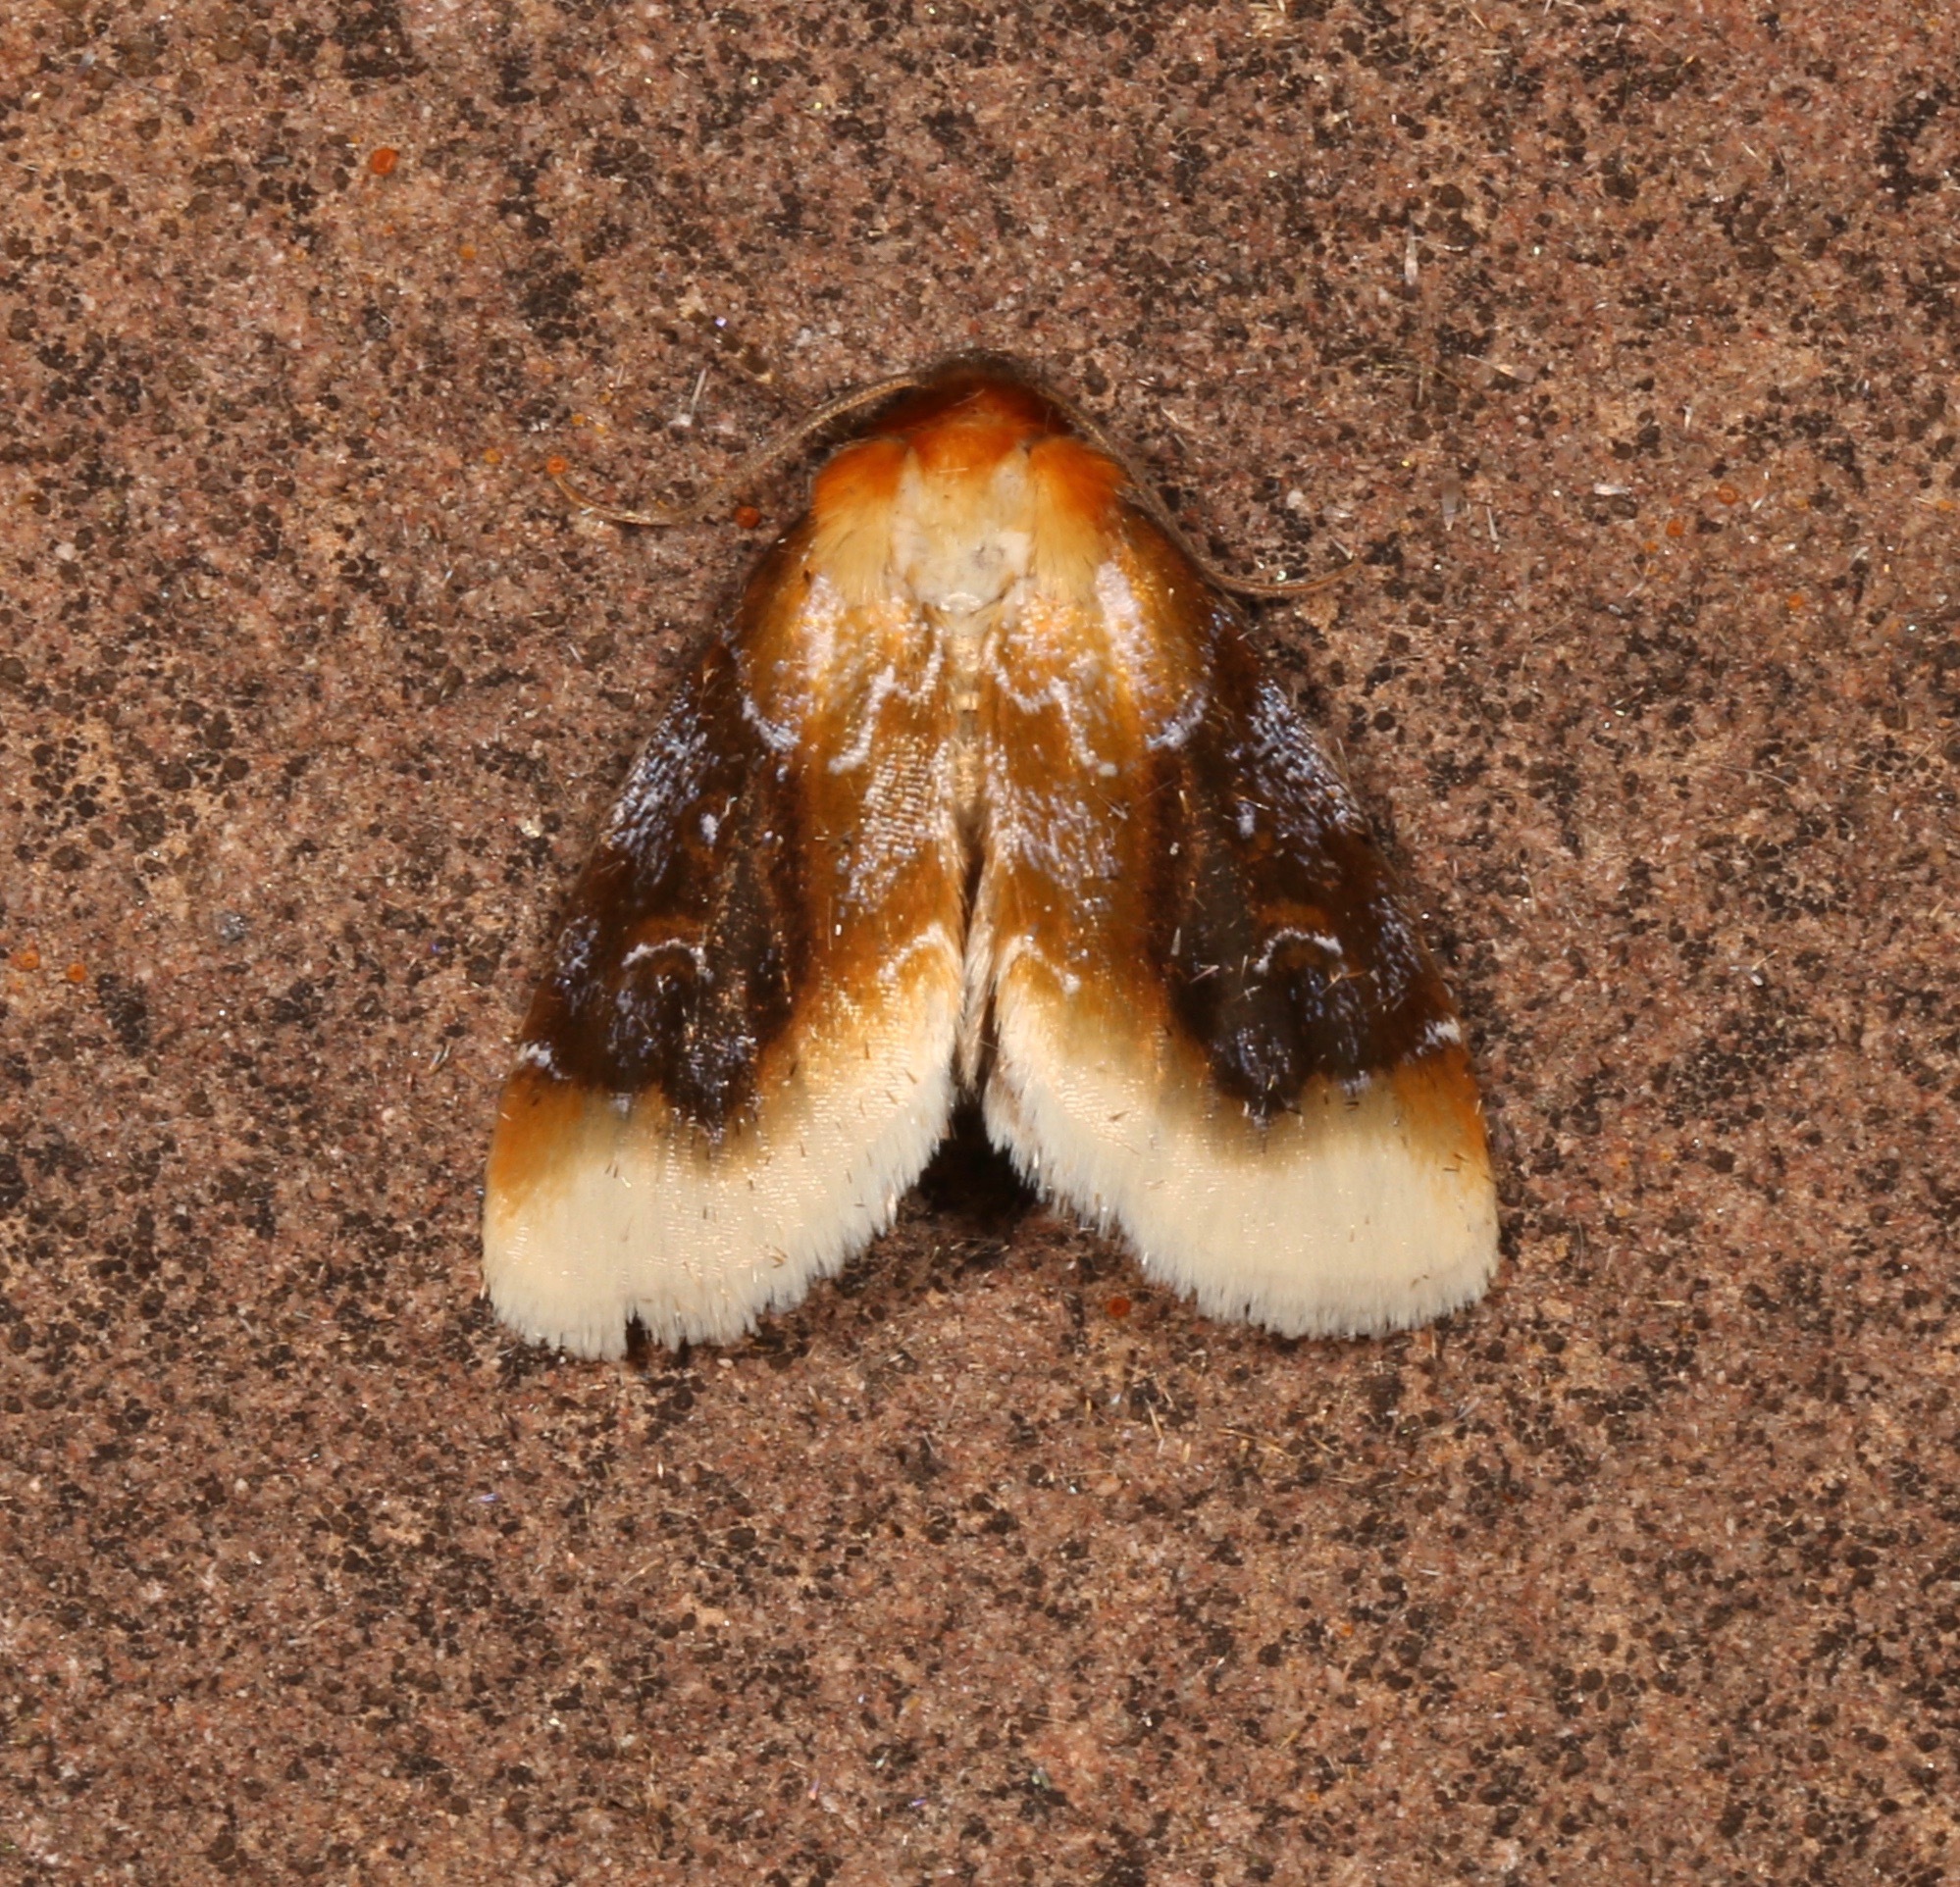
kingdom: Animalia
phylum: Arthropoda
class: Insecta
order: Lepidoptera
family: Noctuidae
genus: Chrysoecia
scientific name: Chrysoecia scira
